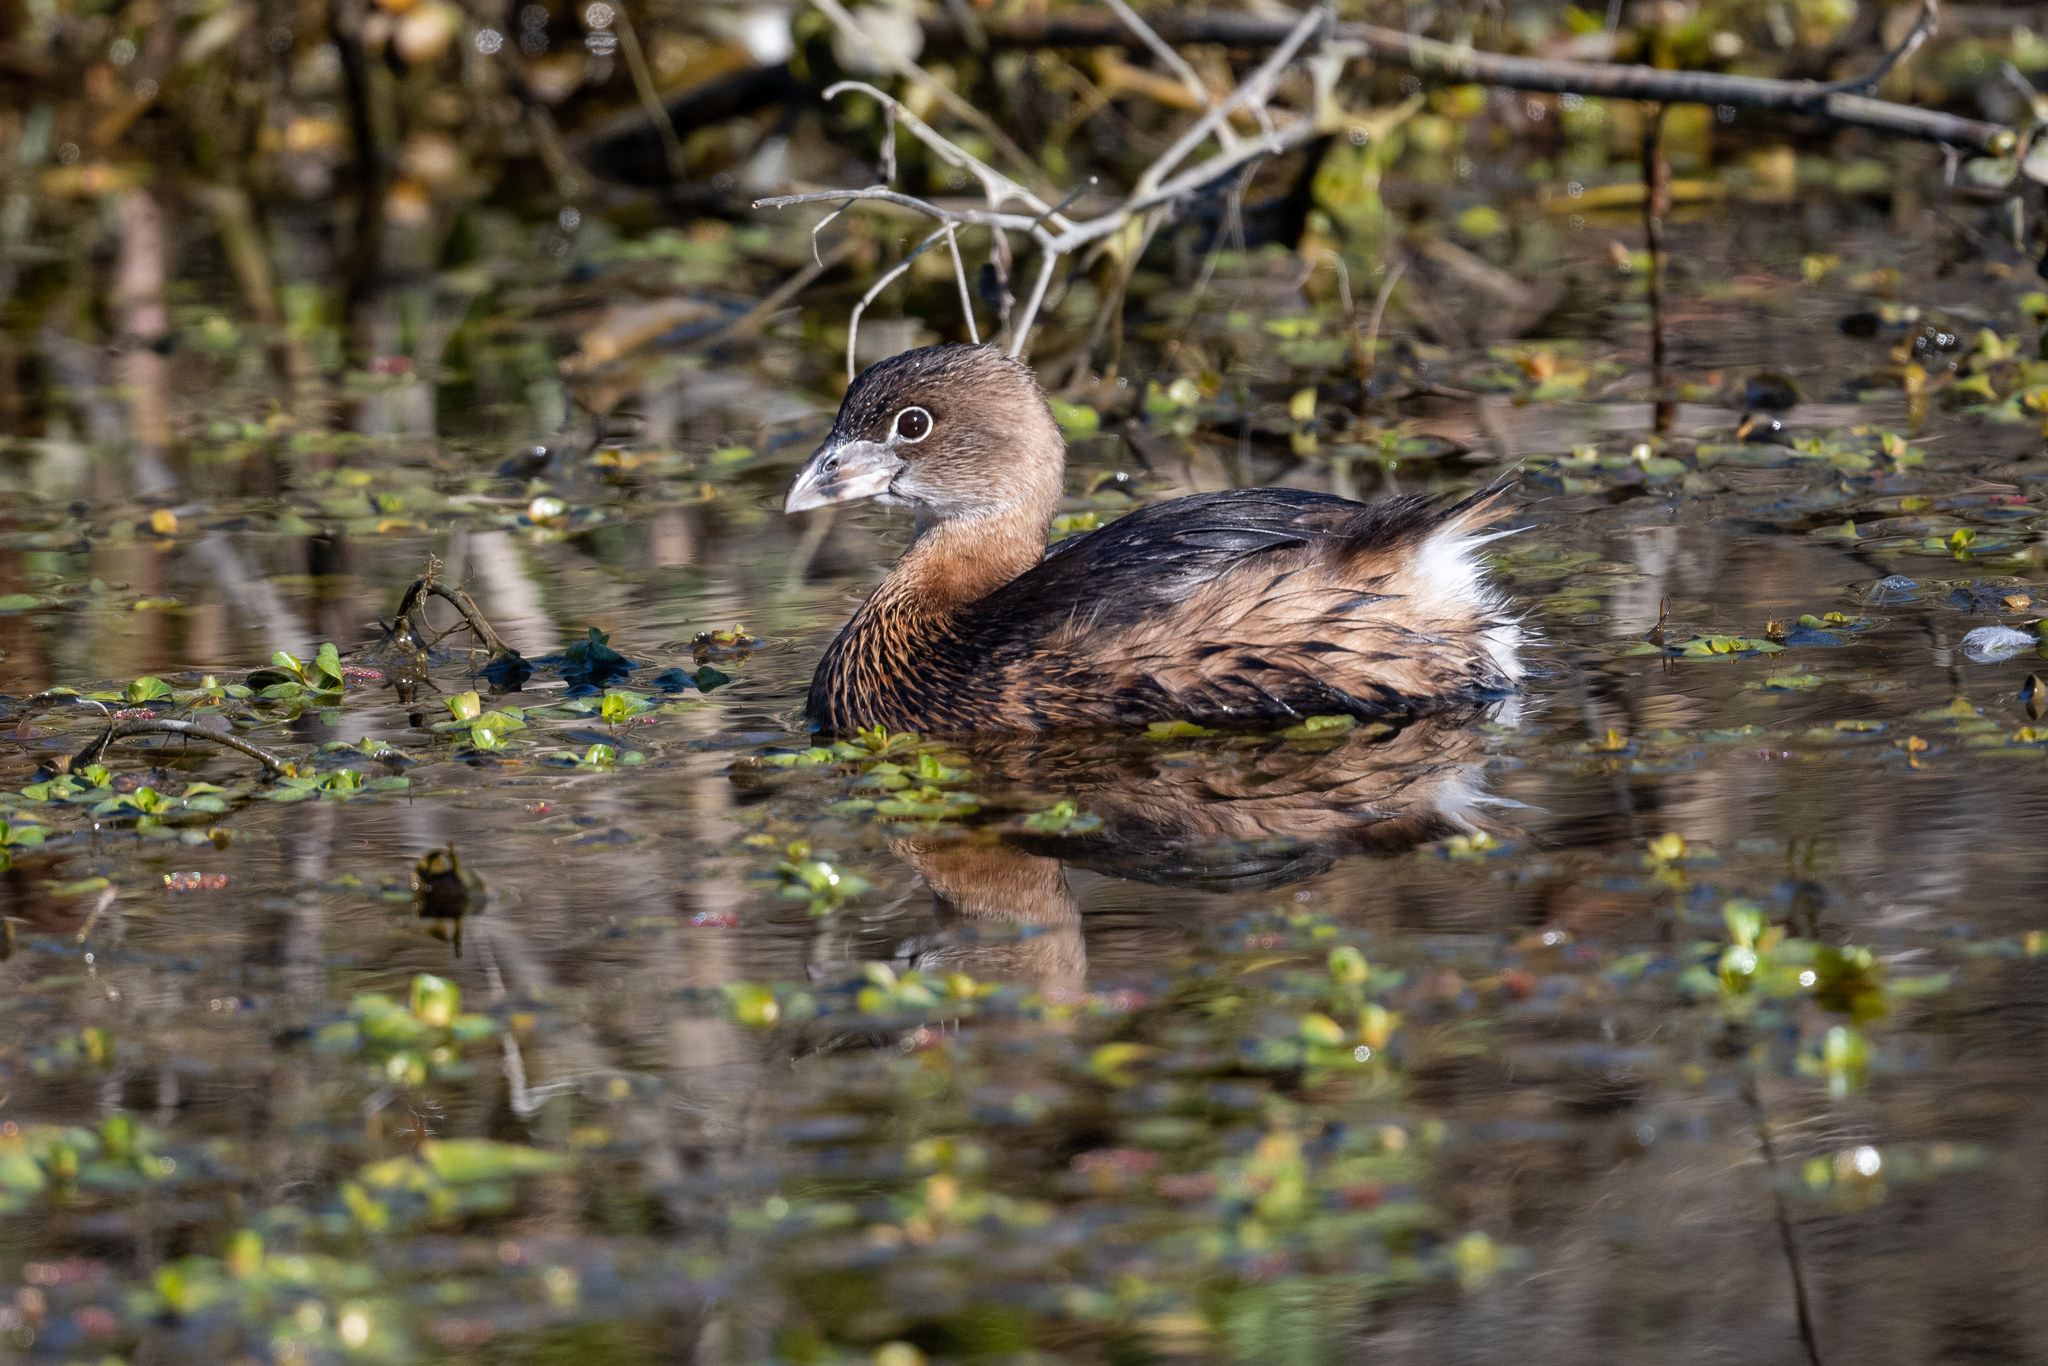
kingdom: Animalia
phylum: Chordata
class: Aves
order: Podicipediformes
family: Podicipedidae
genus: Podilymbus
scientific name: Podilymbus podiceps
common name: Pied-billed grebe
